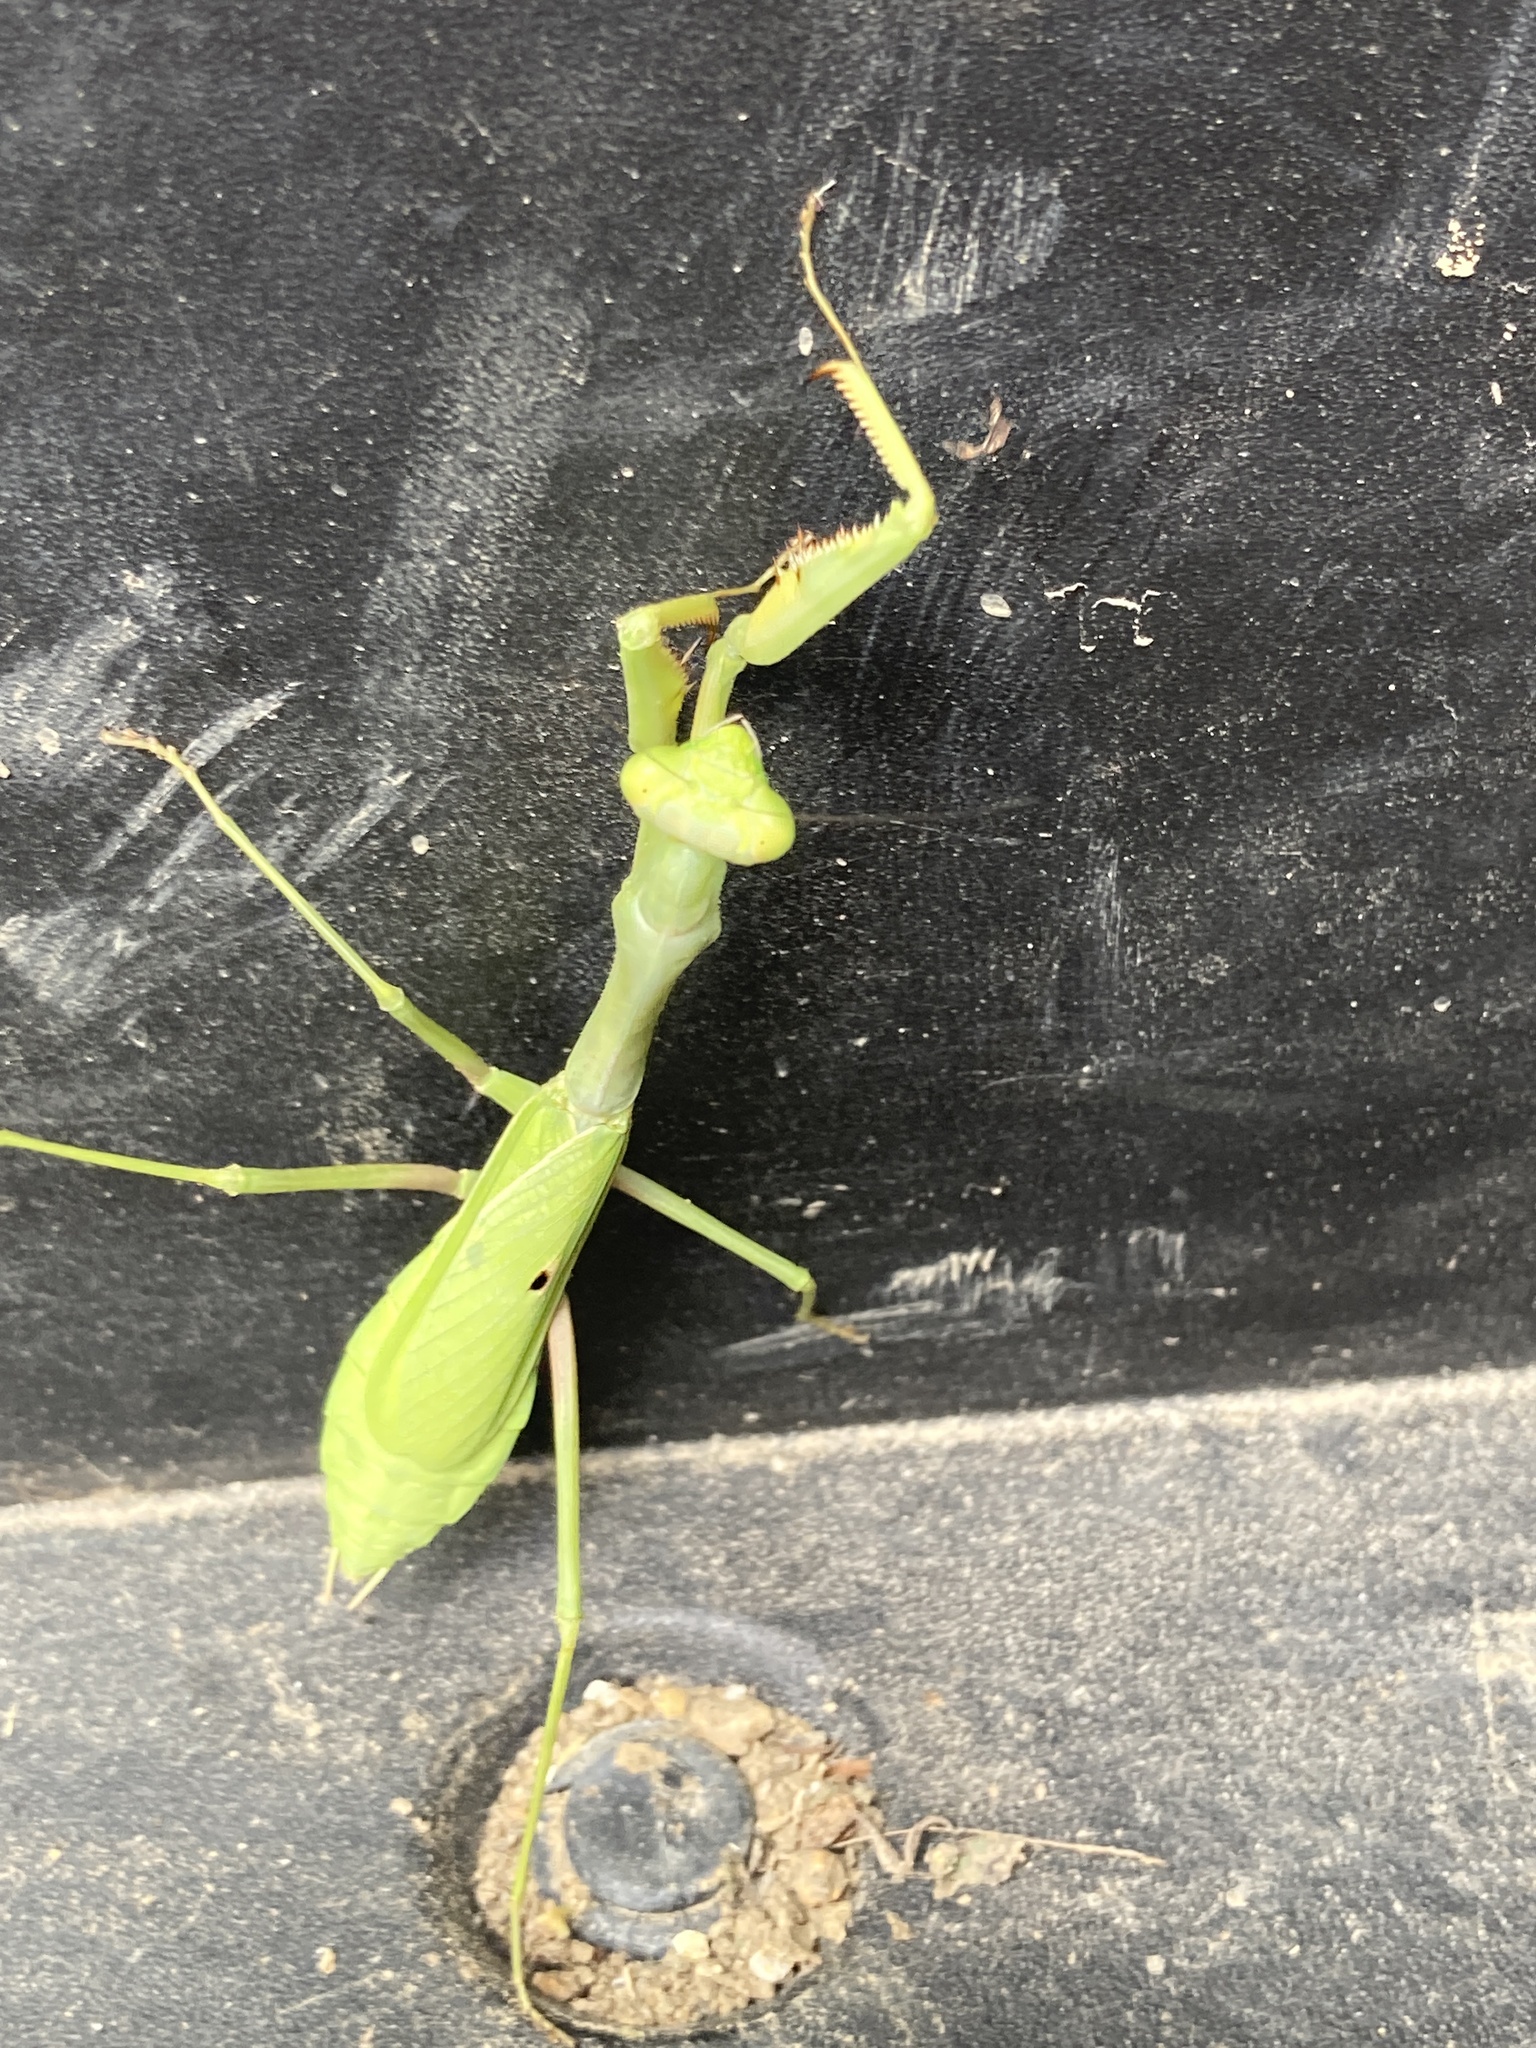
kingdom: Animalia
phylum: Arthropoda
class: Insecta
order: Mantodea
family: Mantidae
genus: Stagmomantis
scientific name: Stagmomantis carolina
